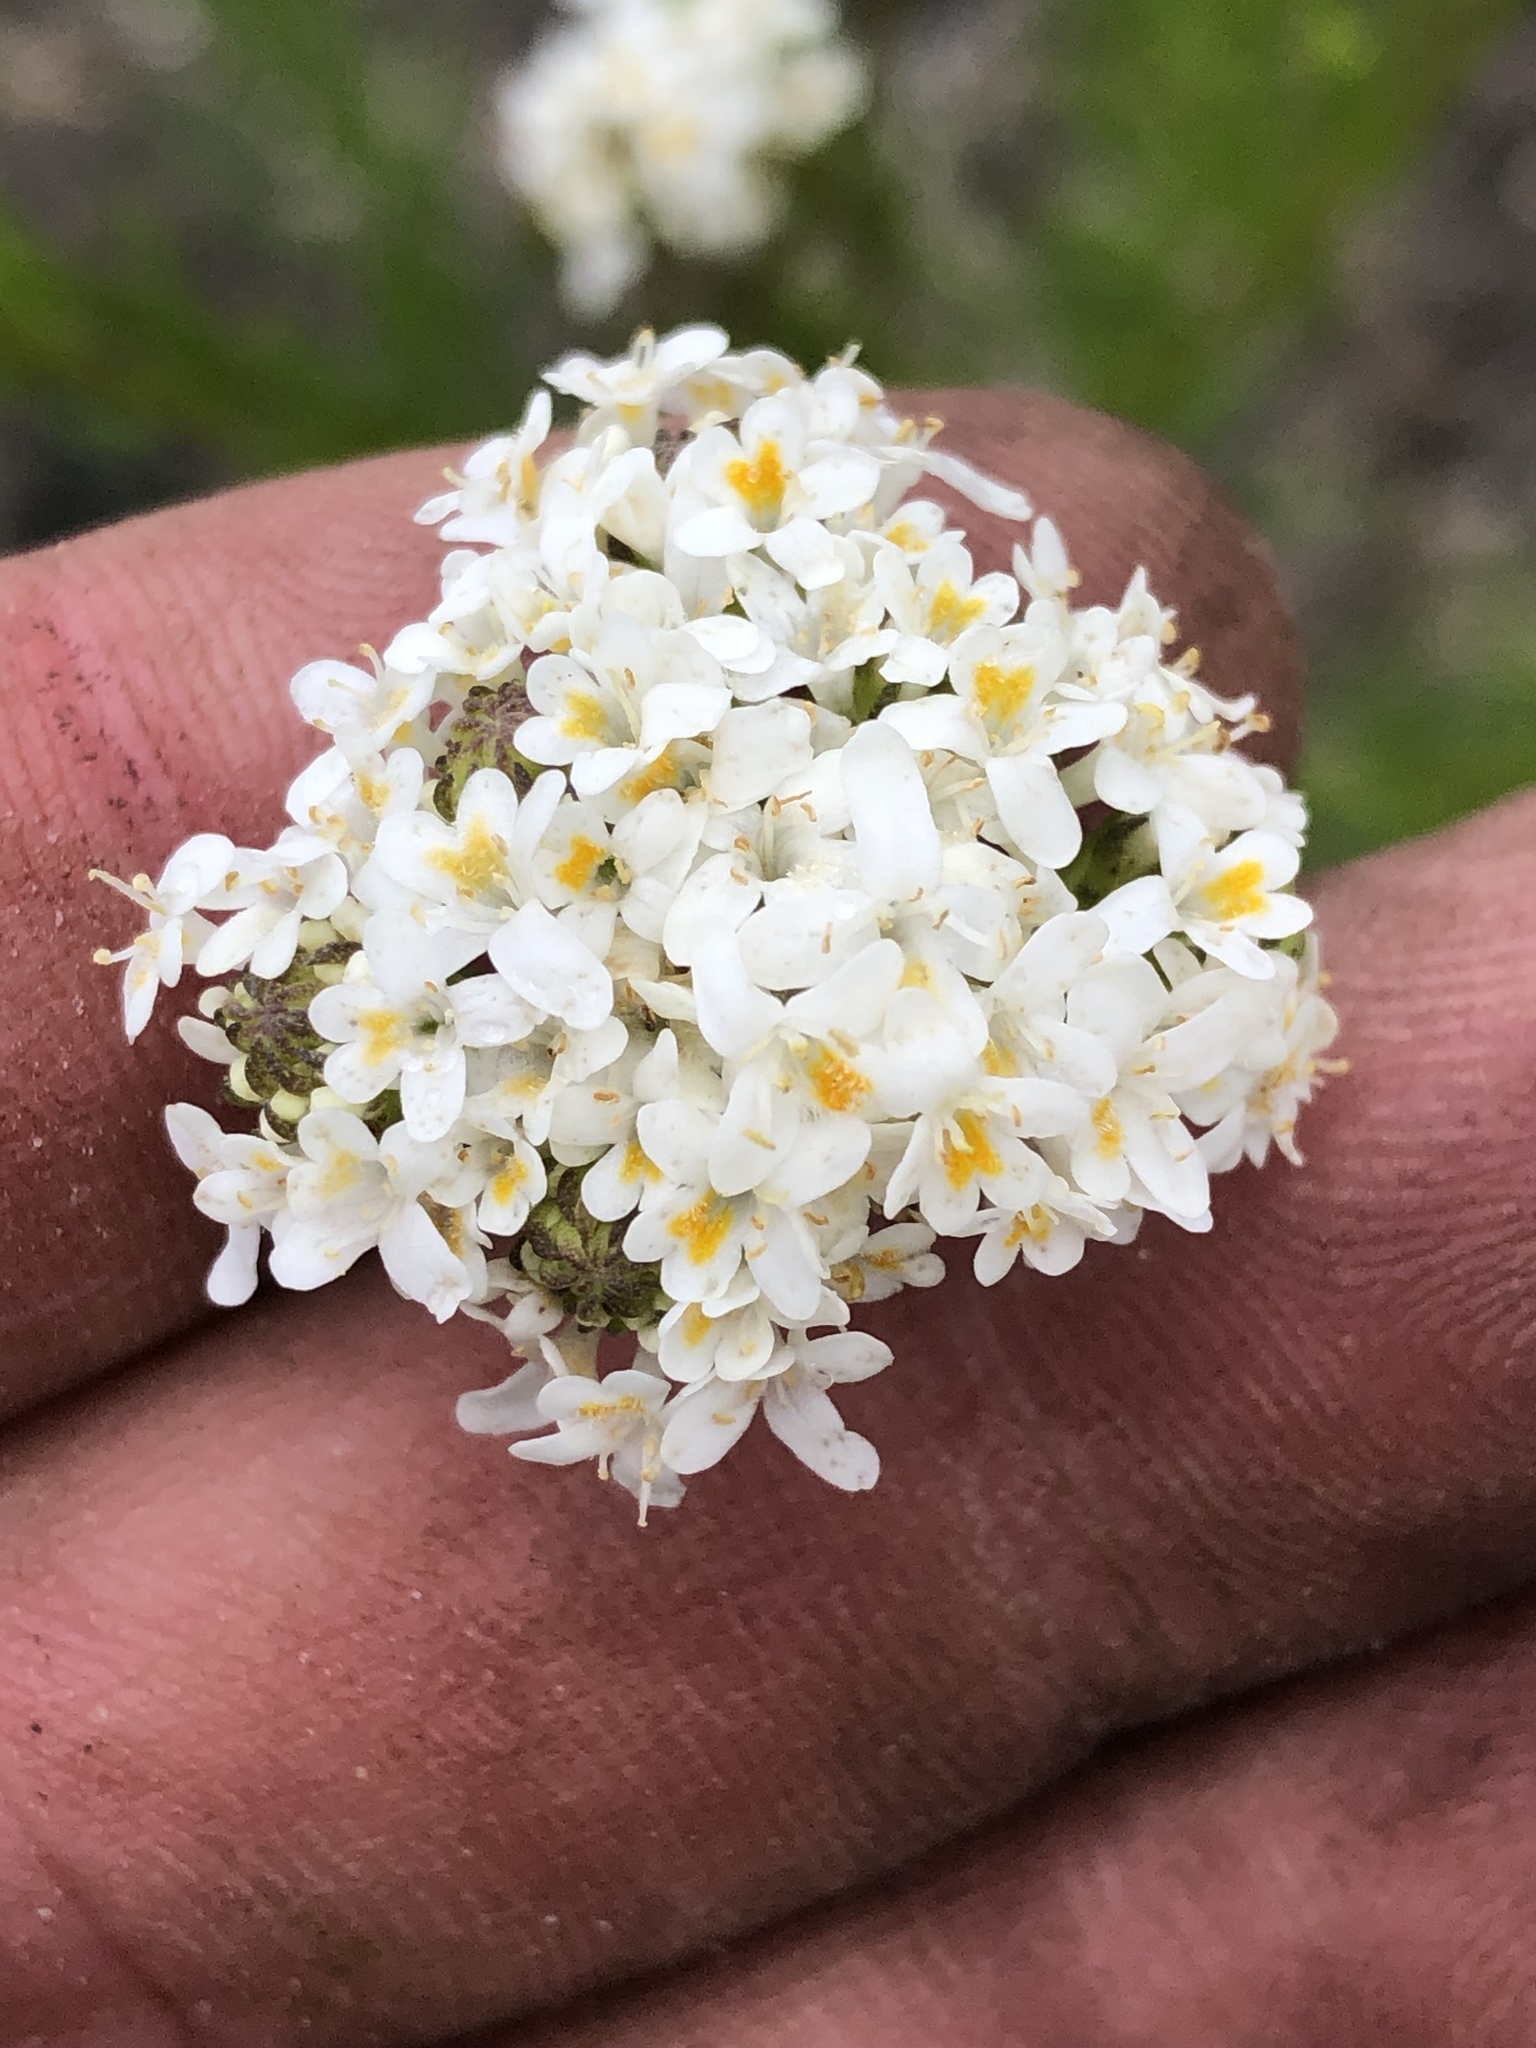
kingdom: Plantae
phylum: Tracheophyta
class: Magnoliopsida
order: Lamiales
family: Scrophulariaceae
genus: Pseudoselago
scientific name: Pseudoselago outeniquensis
